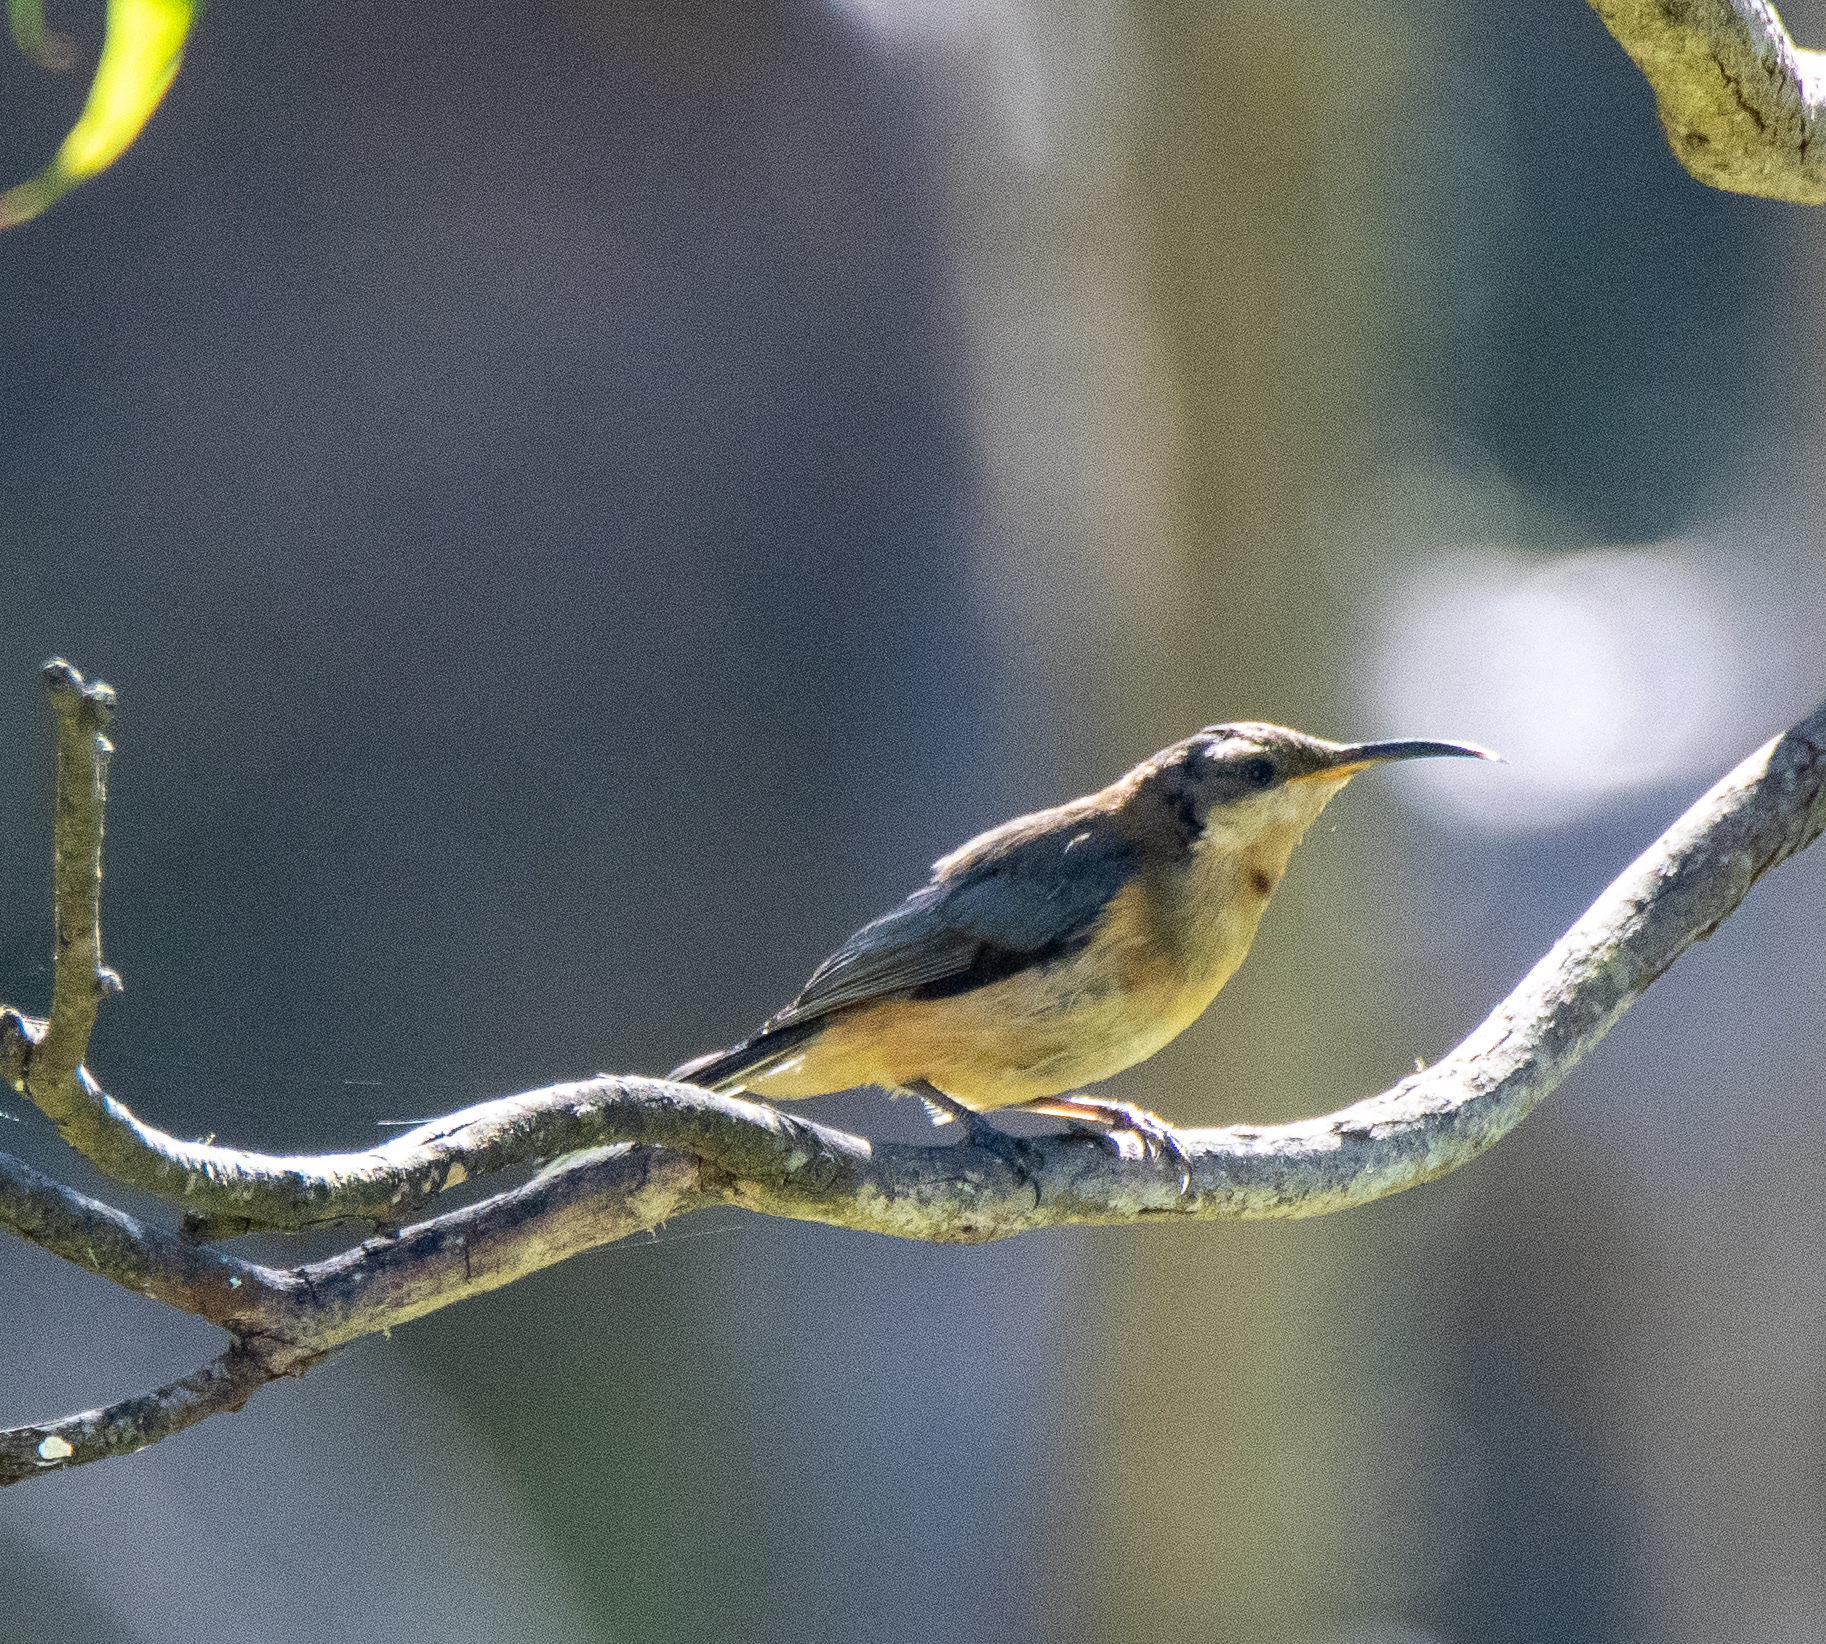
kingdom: Animalia
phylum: Chordata
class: Aves
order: Passeriformes
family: Meliphagidae
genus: Acanthorhynchus
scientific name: Acanthorhynchus tenuirostris
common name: Eastern spinebill
